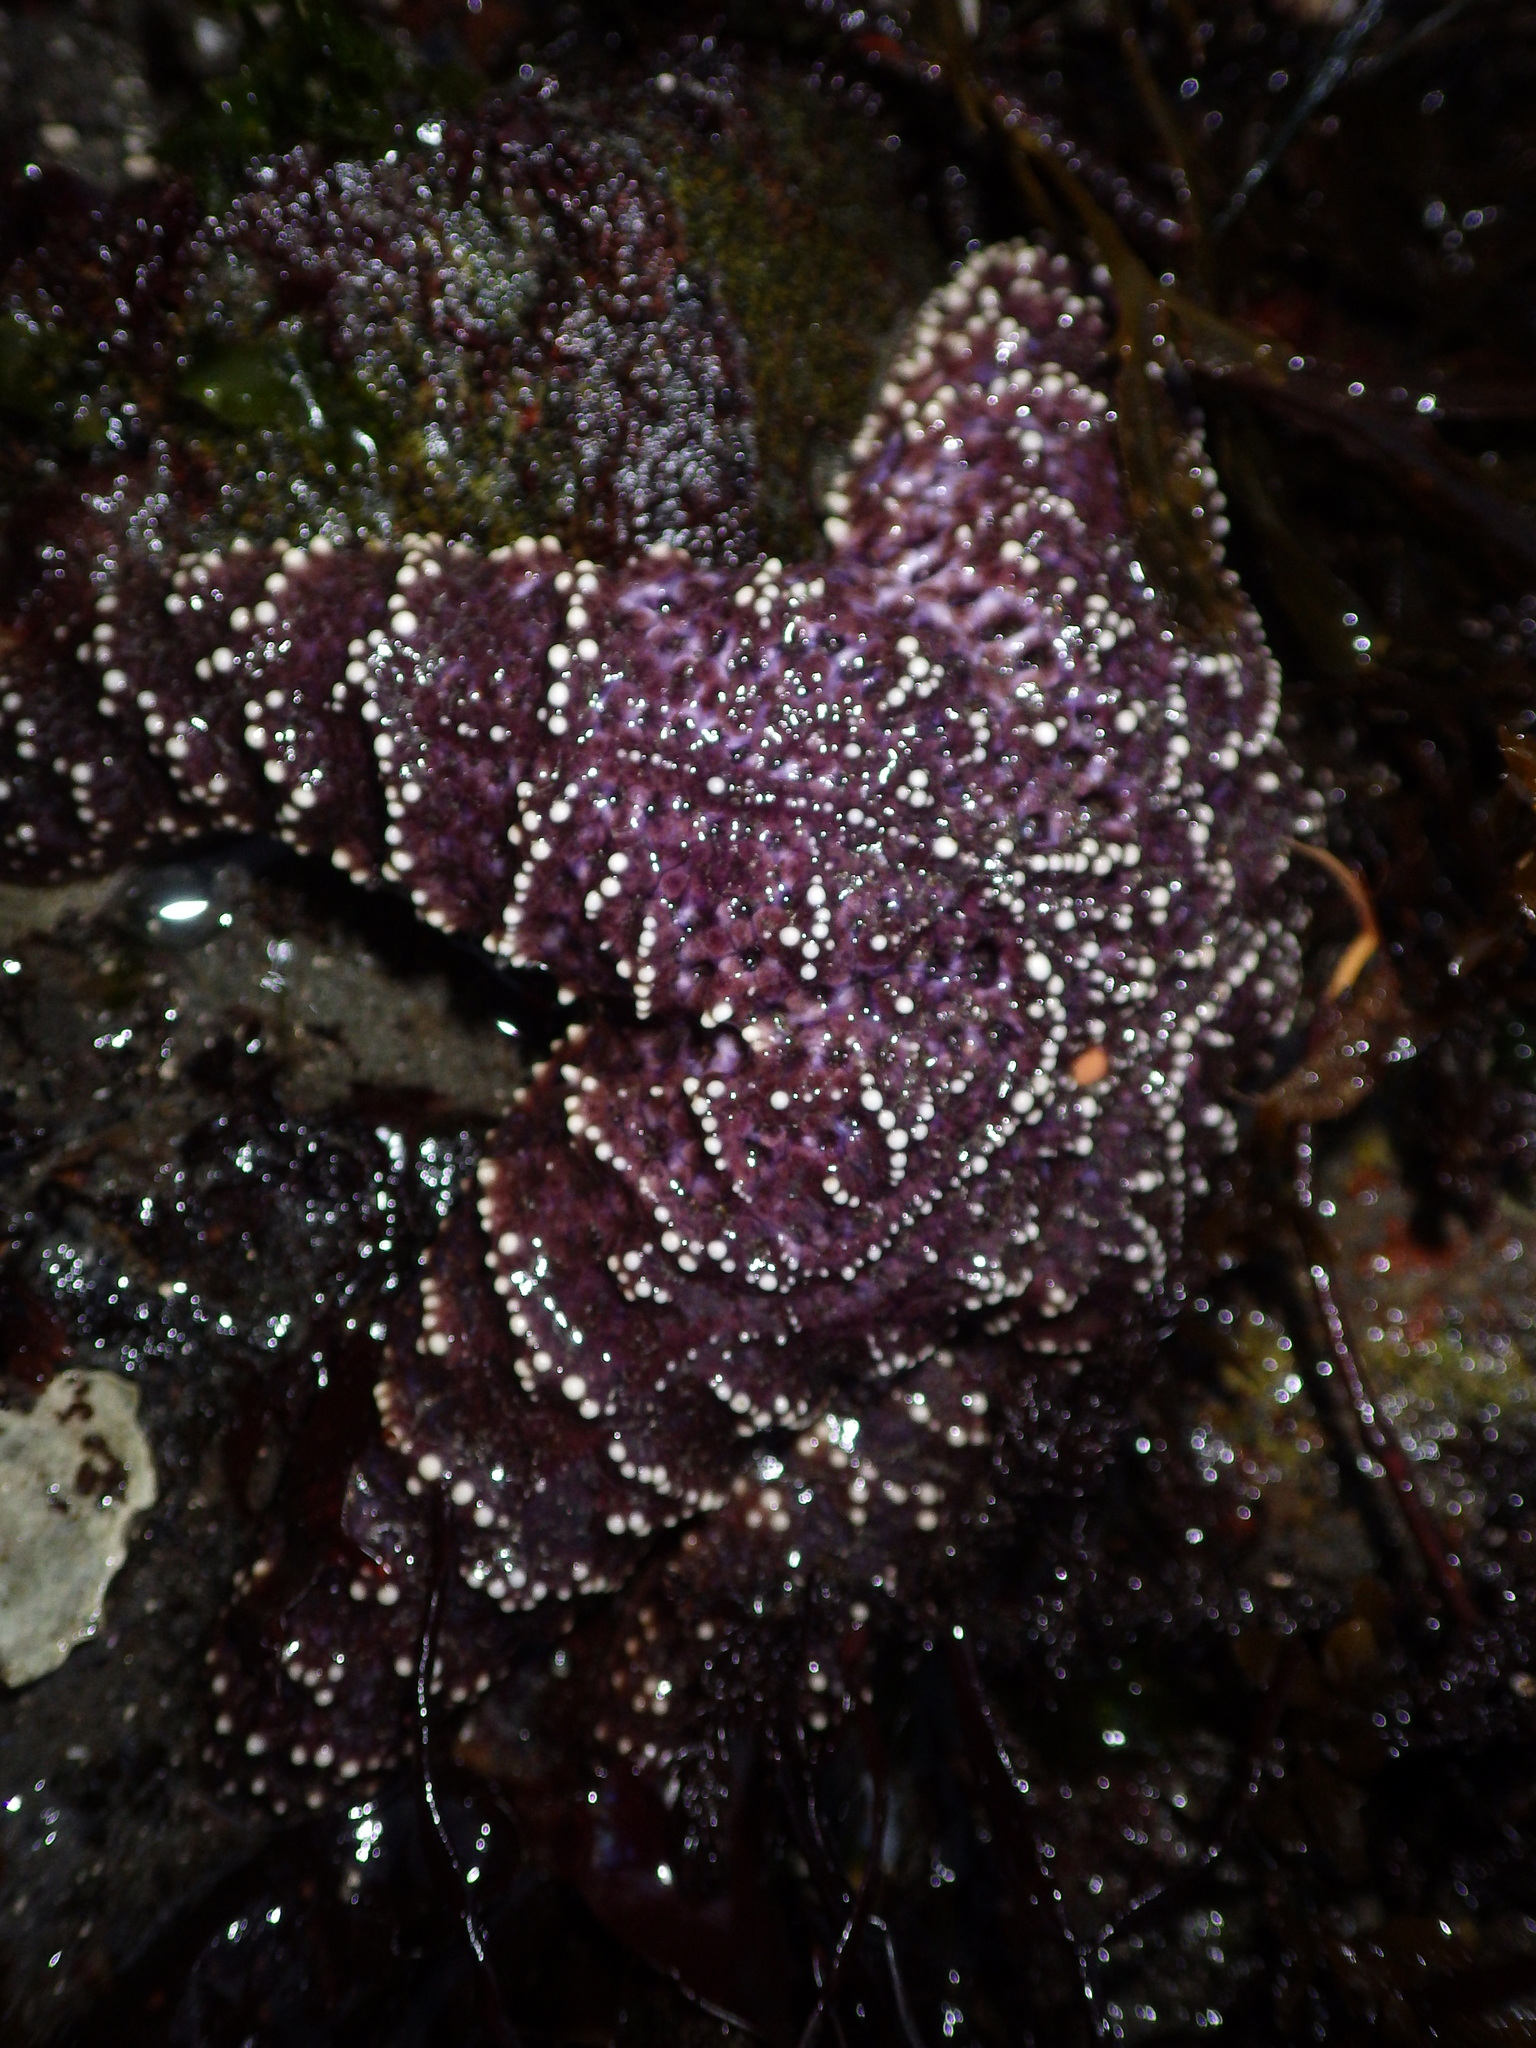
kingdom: Animalia
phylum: Echinodermata
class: Asteroidea
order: Forcipulatida
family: Asteriidae
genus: Pisaster
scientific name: Pisaster ochraceus
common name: Ochre stars
